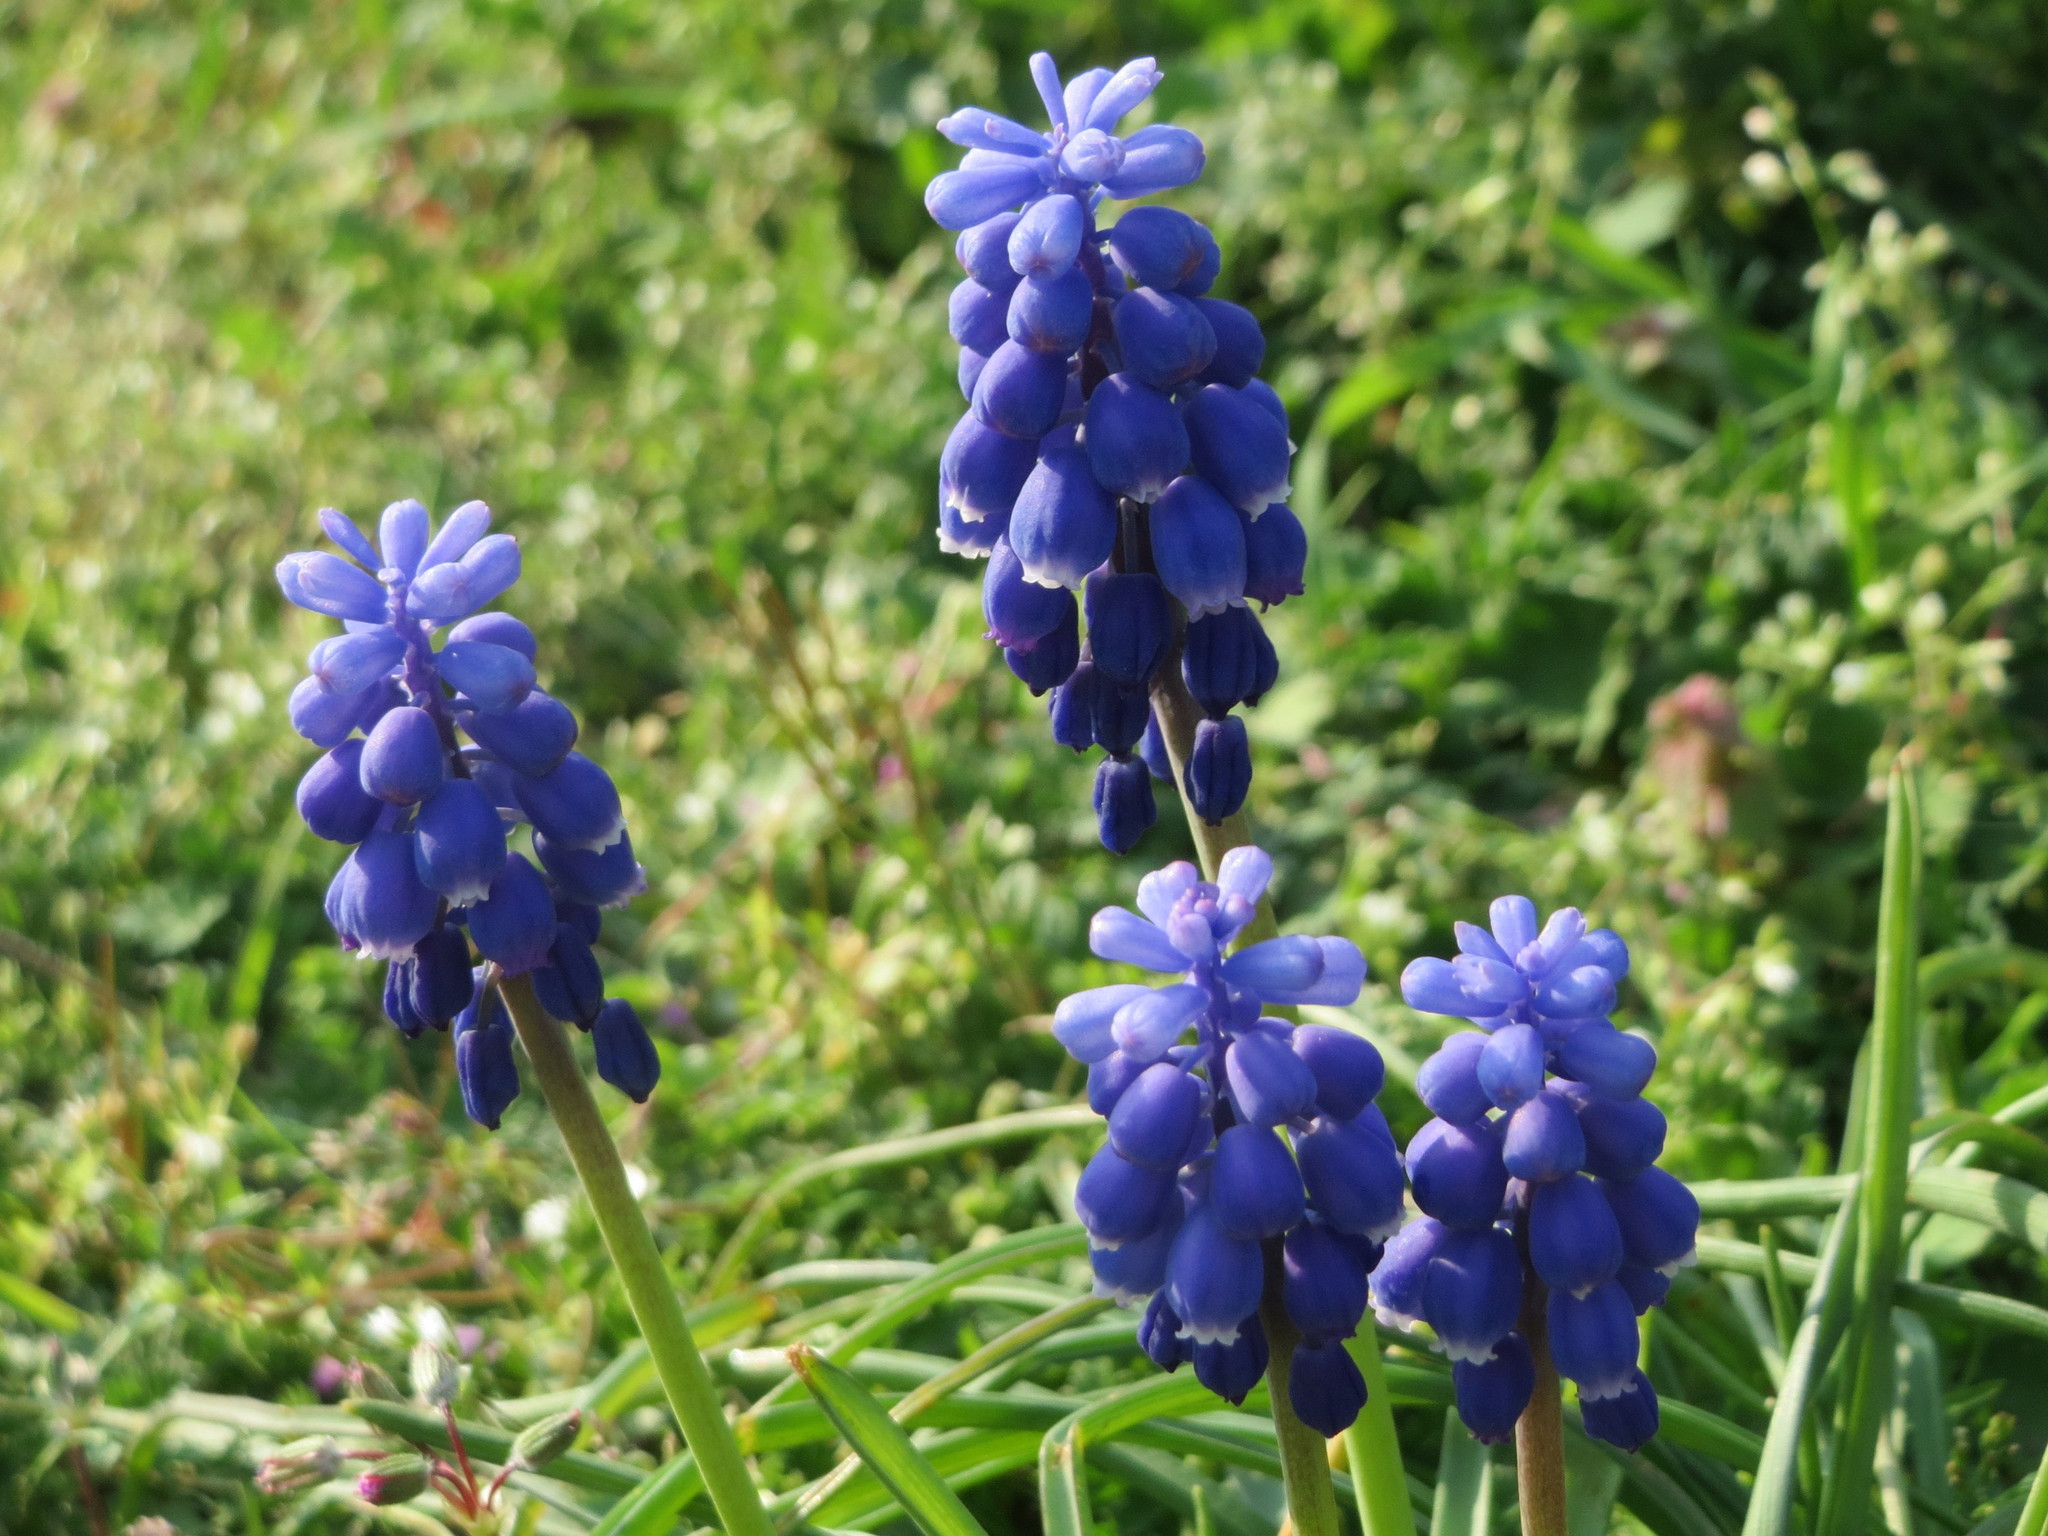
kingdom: Plantae
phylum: Tracheophyta
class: Liliopsida
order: Asparagales
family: Asparagaceae
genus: Muscari
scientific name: Muscari armeniacum
